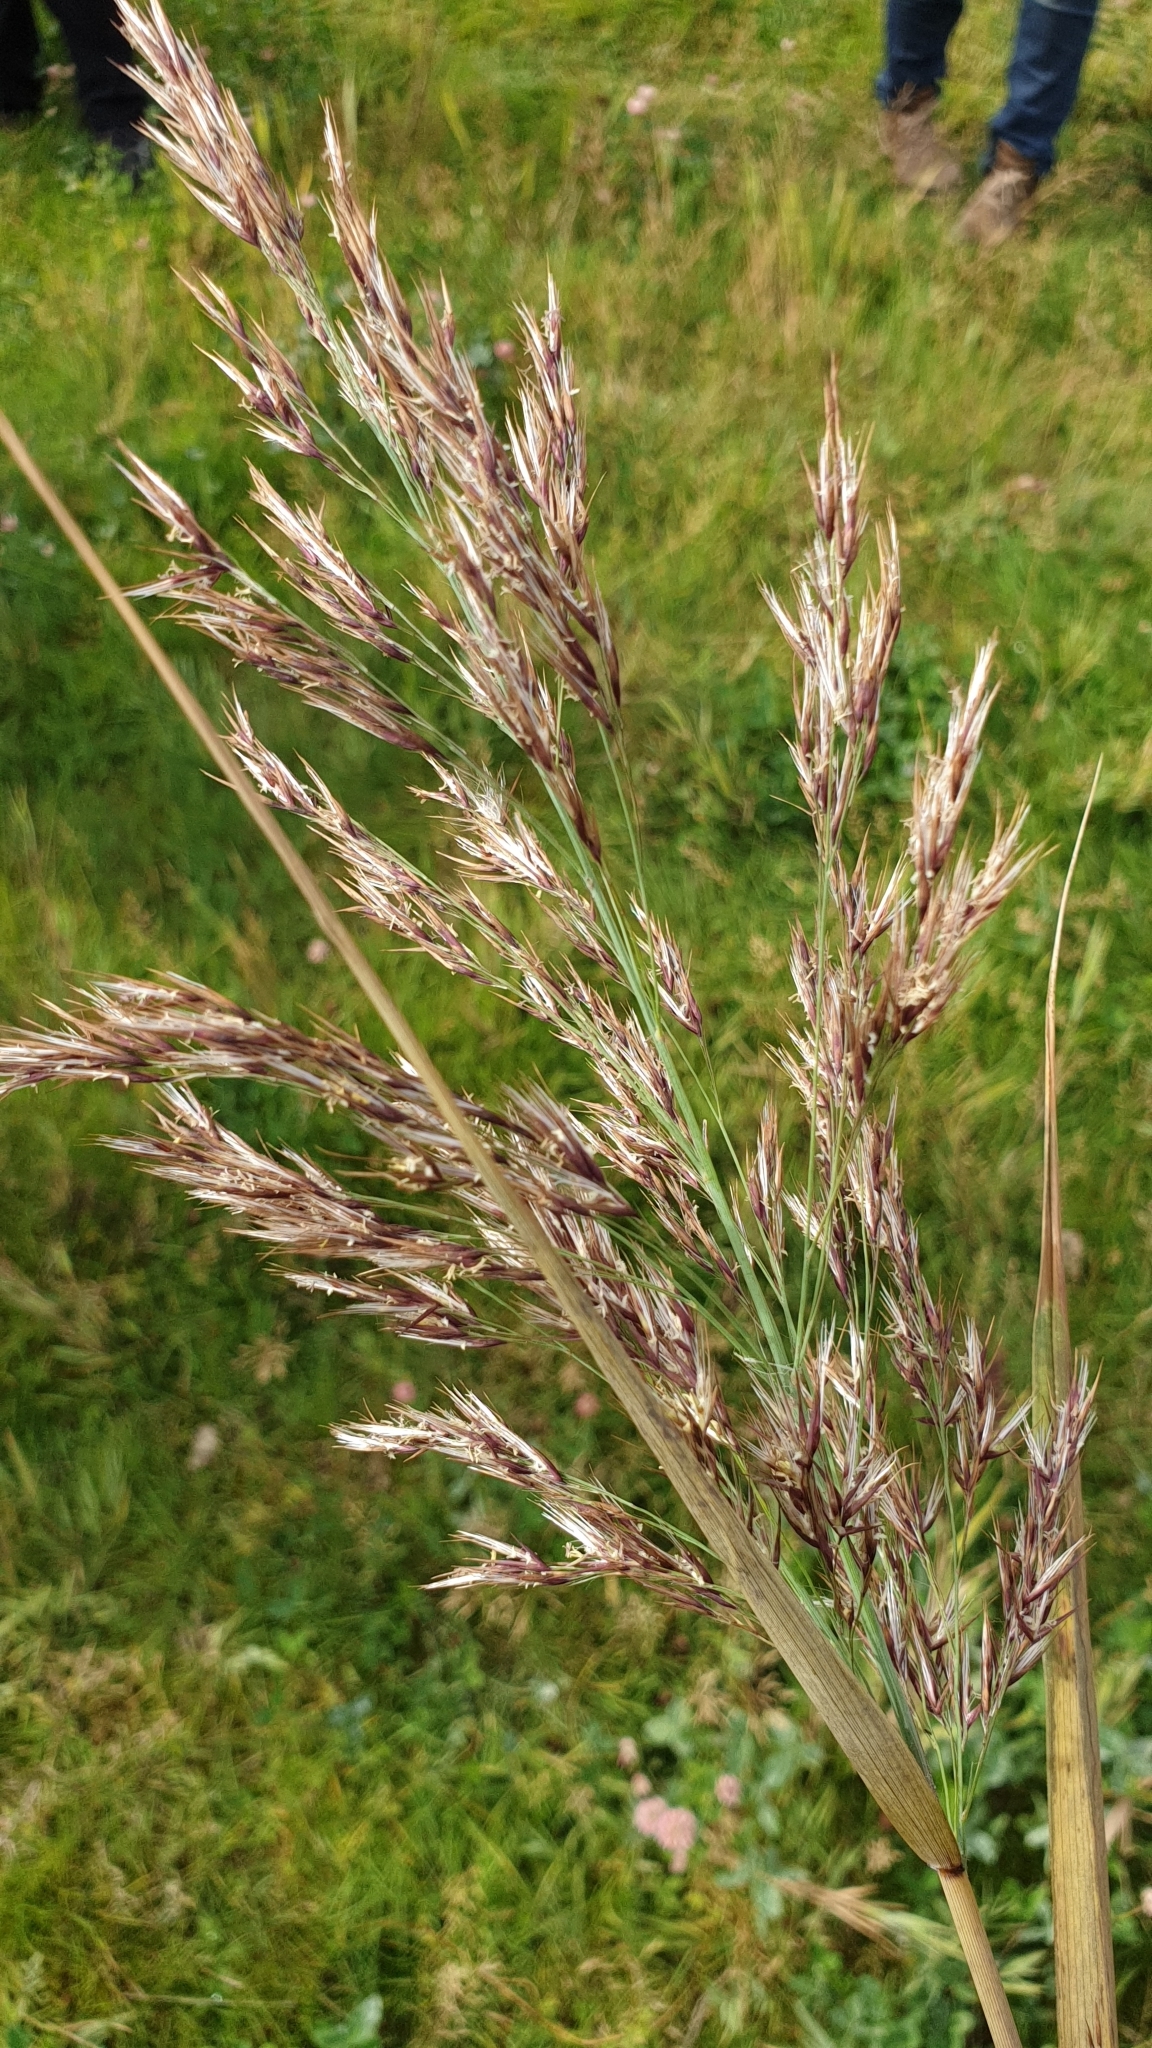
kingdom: Plantae
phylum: Tracheophyta
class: Liliopsida
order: Poales
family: Poaceae
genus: Phragmites
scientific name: Phragmites australis
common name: Common reed
